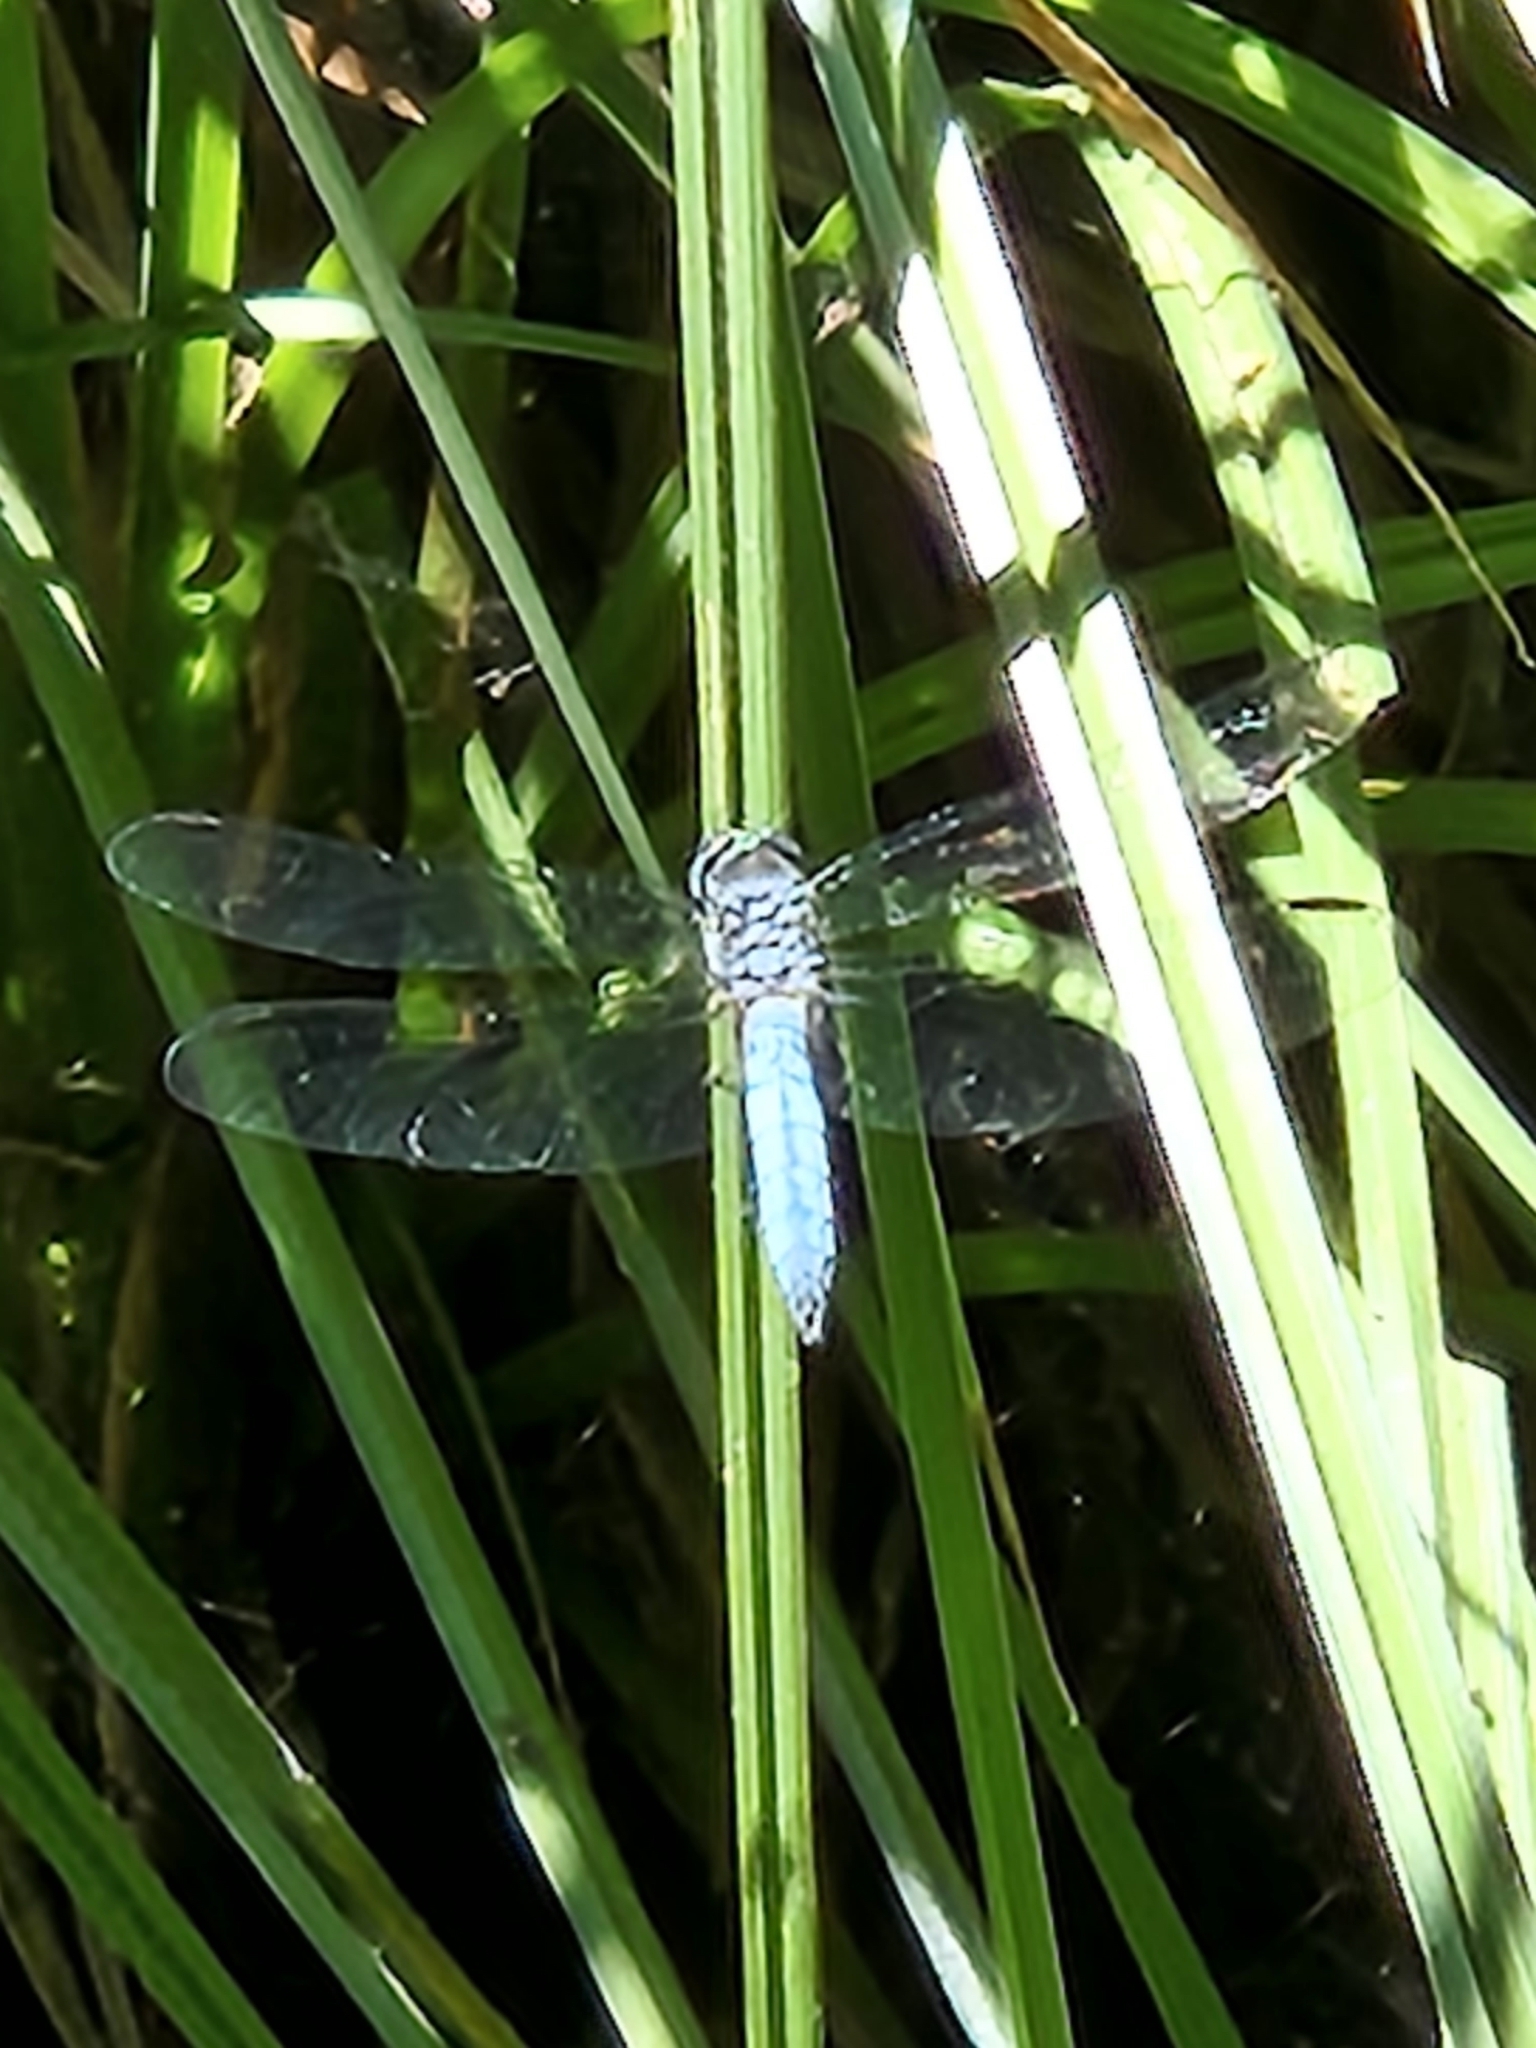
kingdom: Animalia
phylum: Arthropoda
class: Insecta
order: Odonata
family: Libellulidae
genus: Pachydiplax
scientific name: Pachydiplax longipennis
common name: Blue dasher
